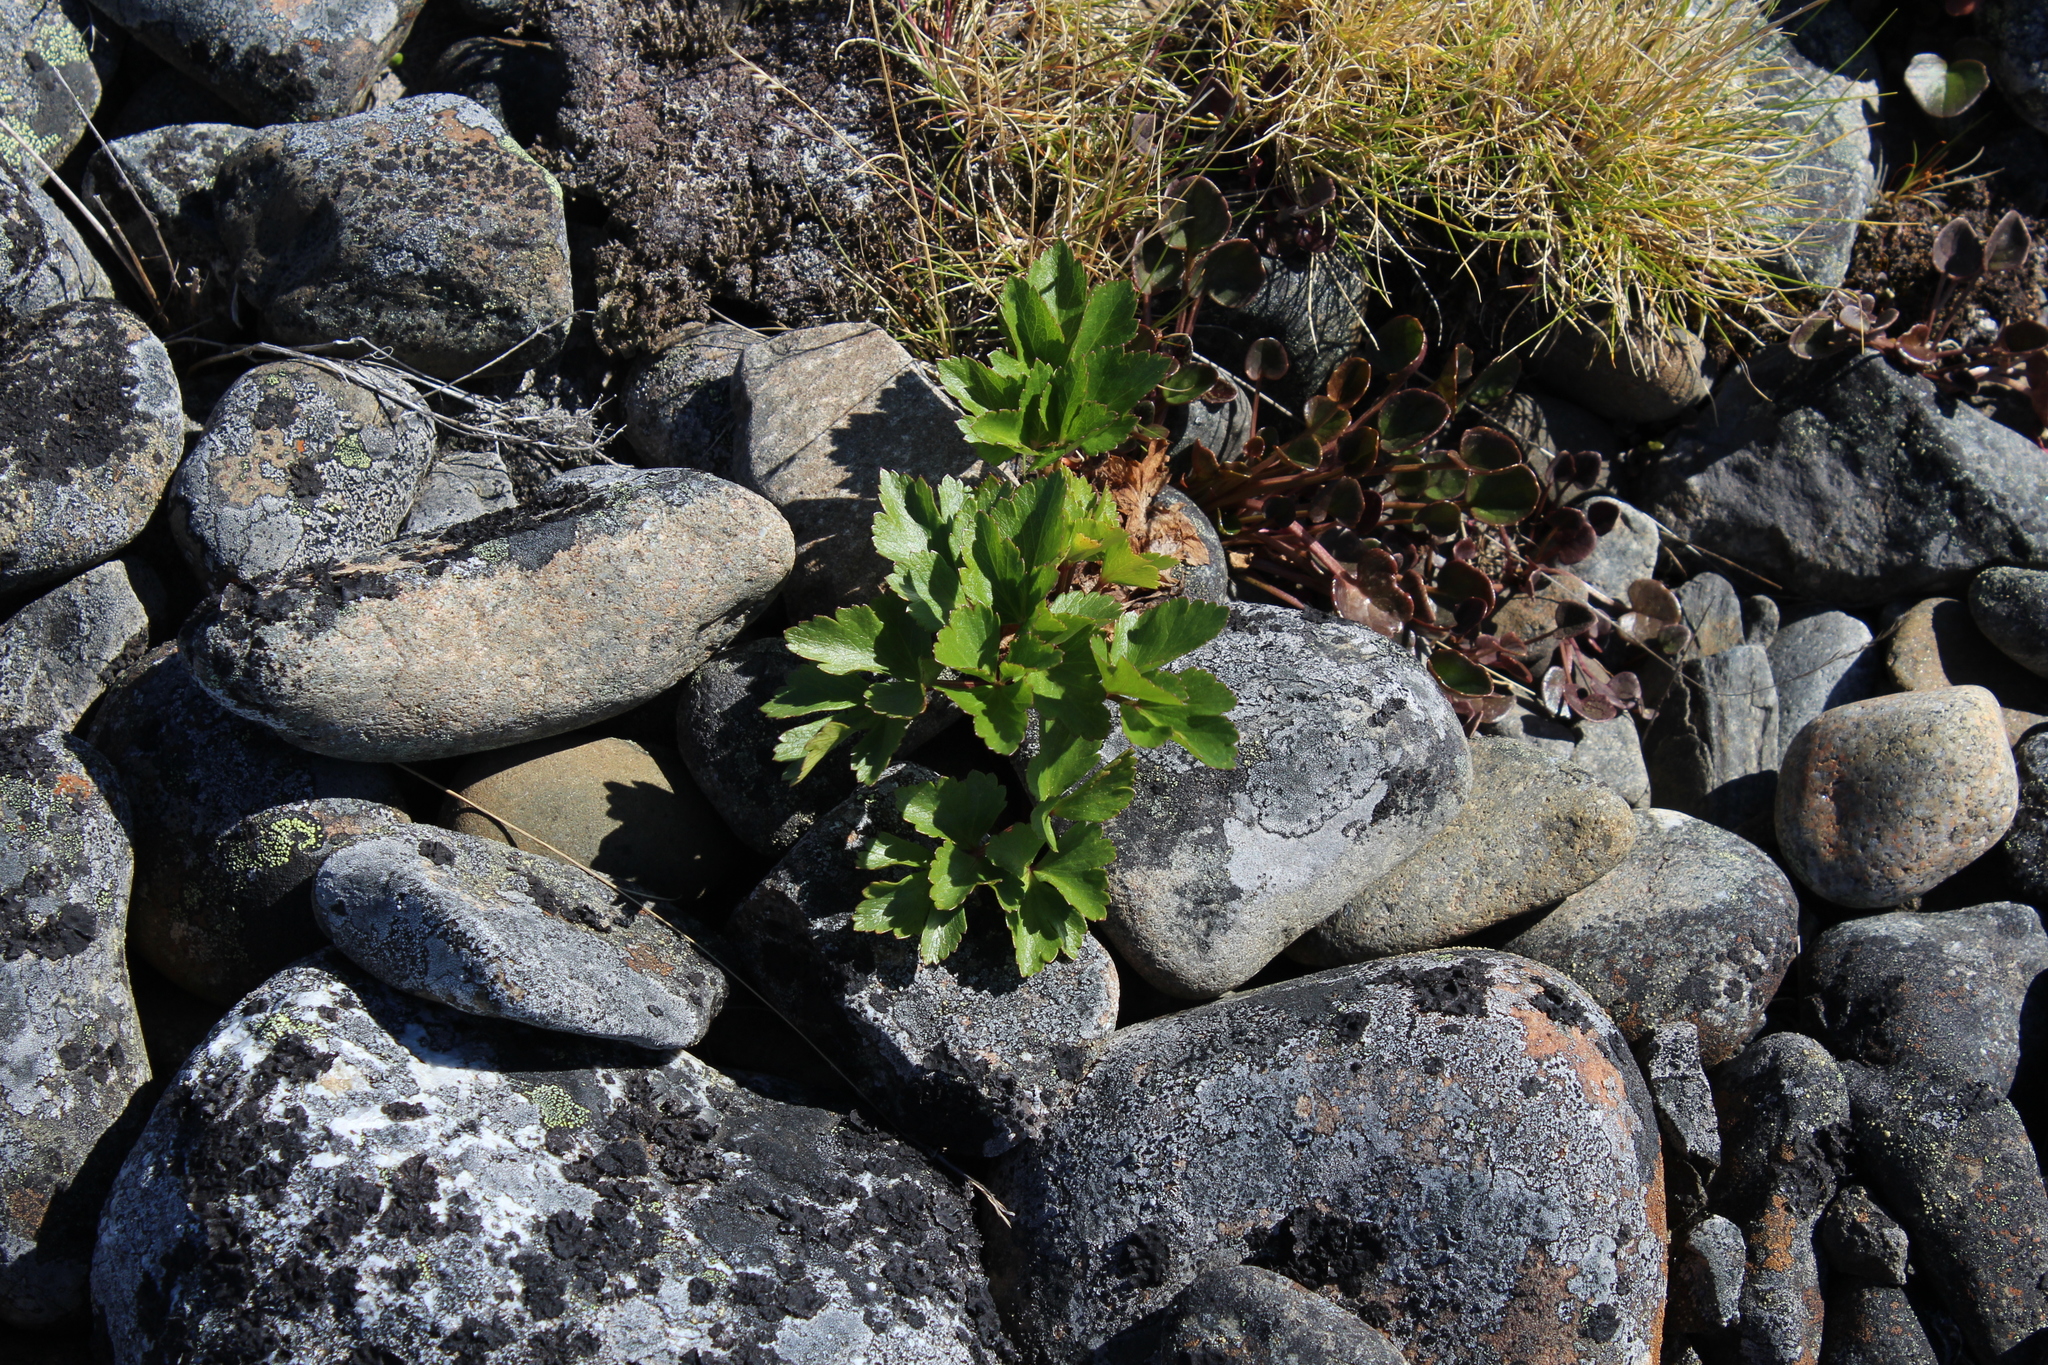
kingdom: Plantae
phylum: Tracheophyta
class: Magnoliopsida
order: Apiales
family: Apiaceae
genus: Ligusticum
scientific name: Ligusticum scothicum
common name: Beach lovage
